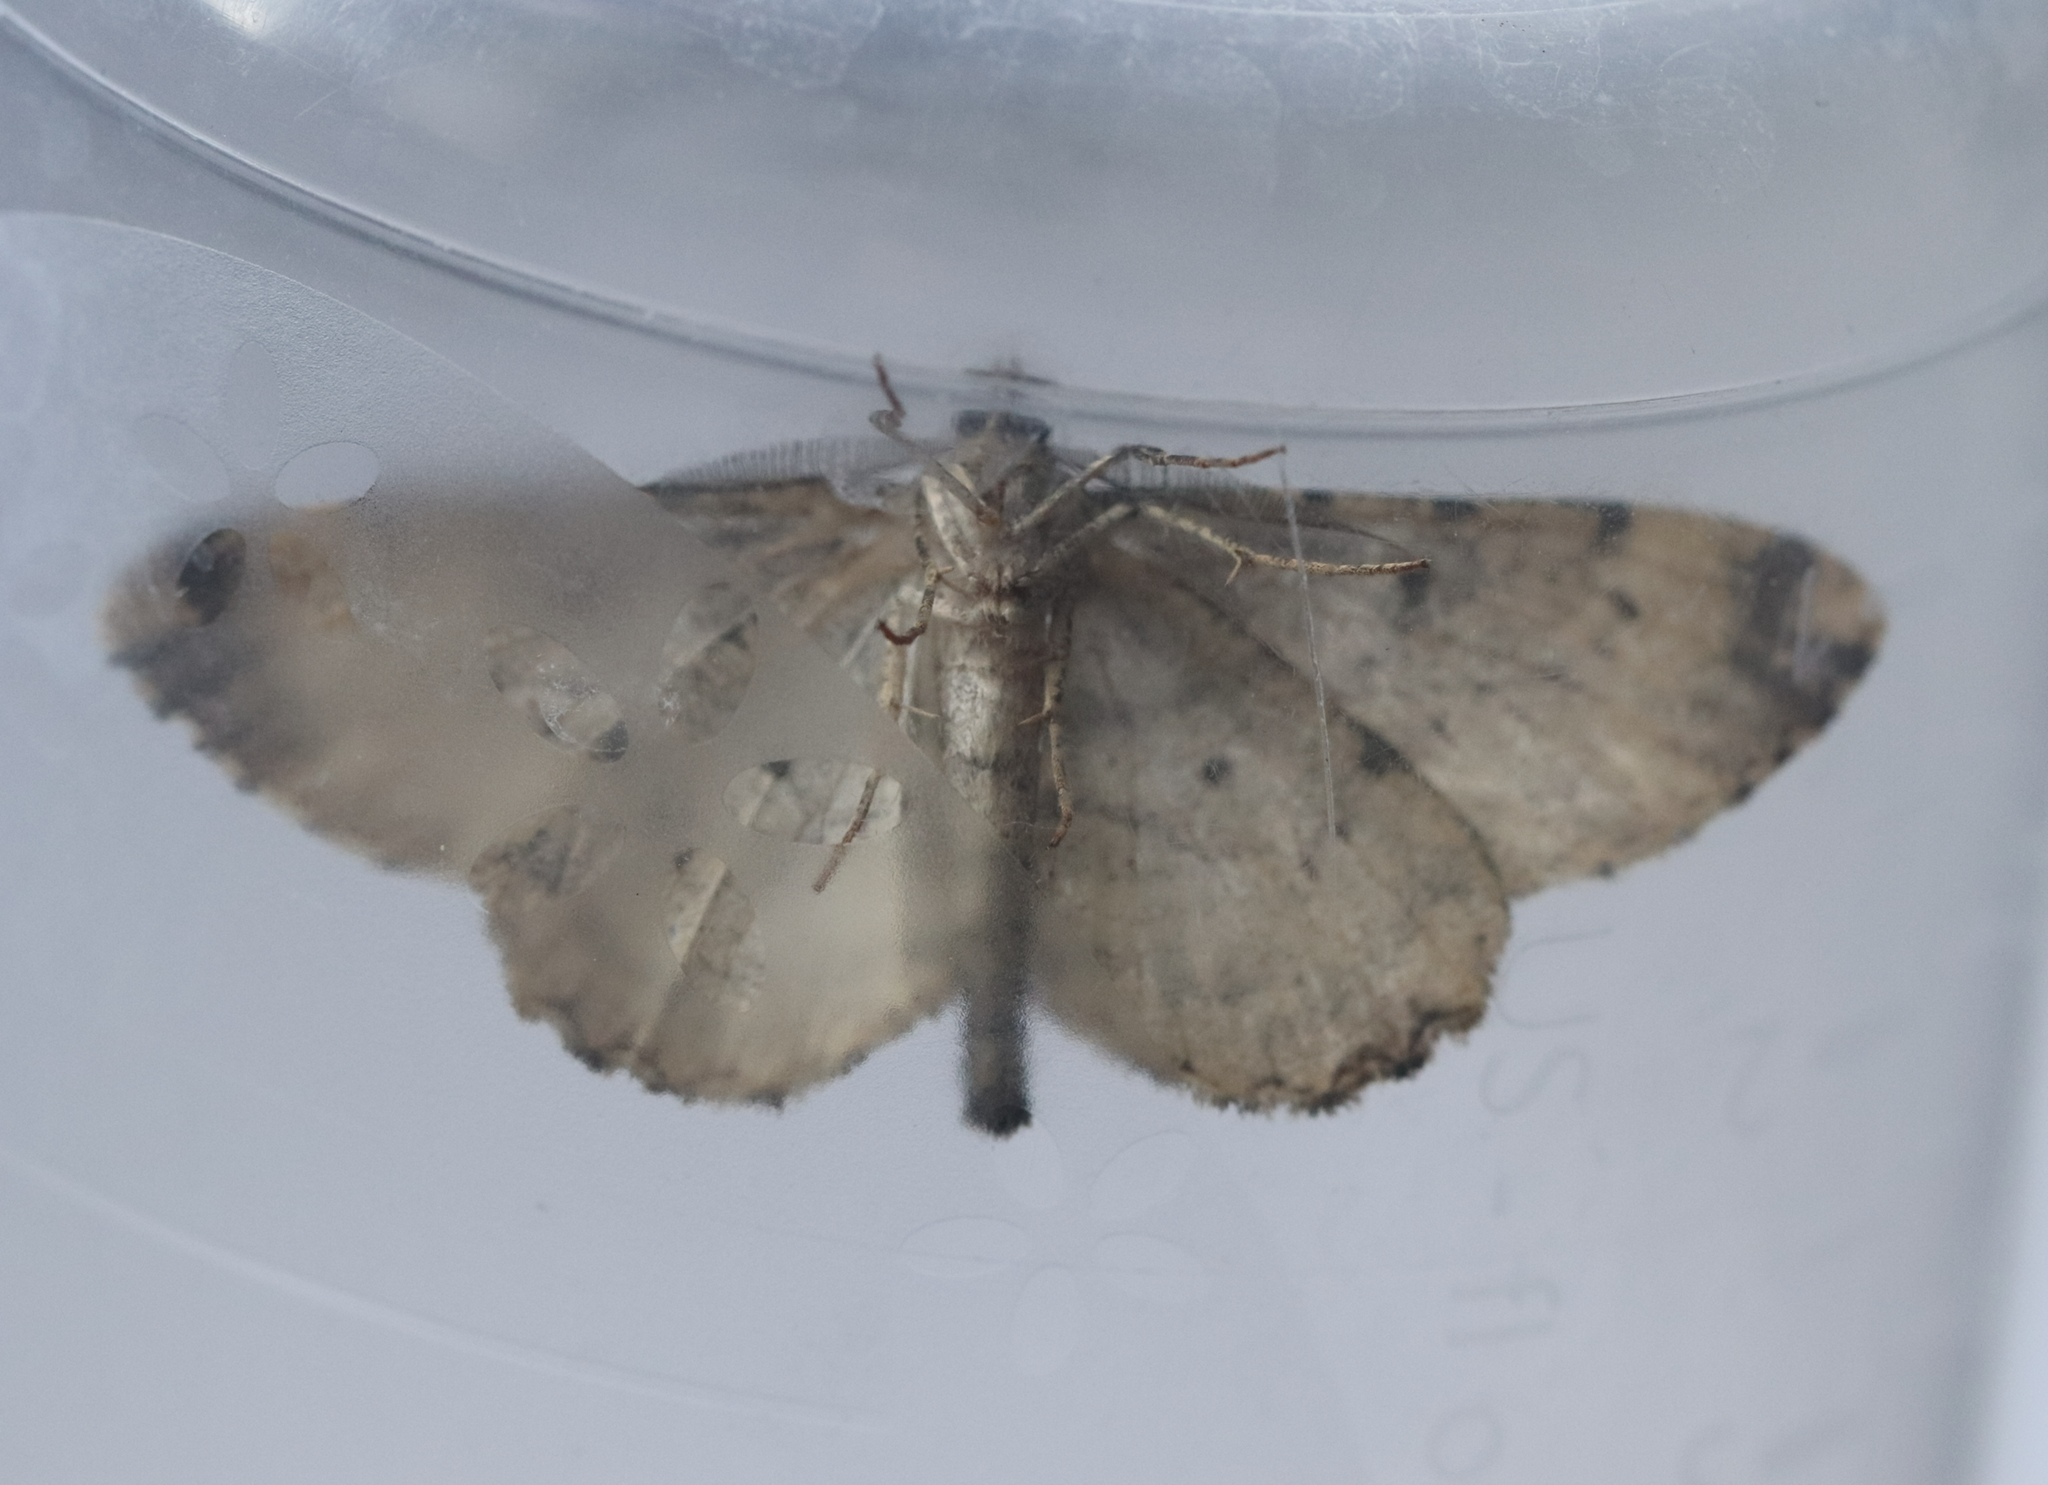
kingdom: Animalia
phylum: Arthropoda
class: Insecta
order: Lepidoptera
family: Geometridae
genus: Peribatodes
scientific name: Peribatodes rhomboidaria
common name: Willow beauty
